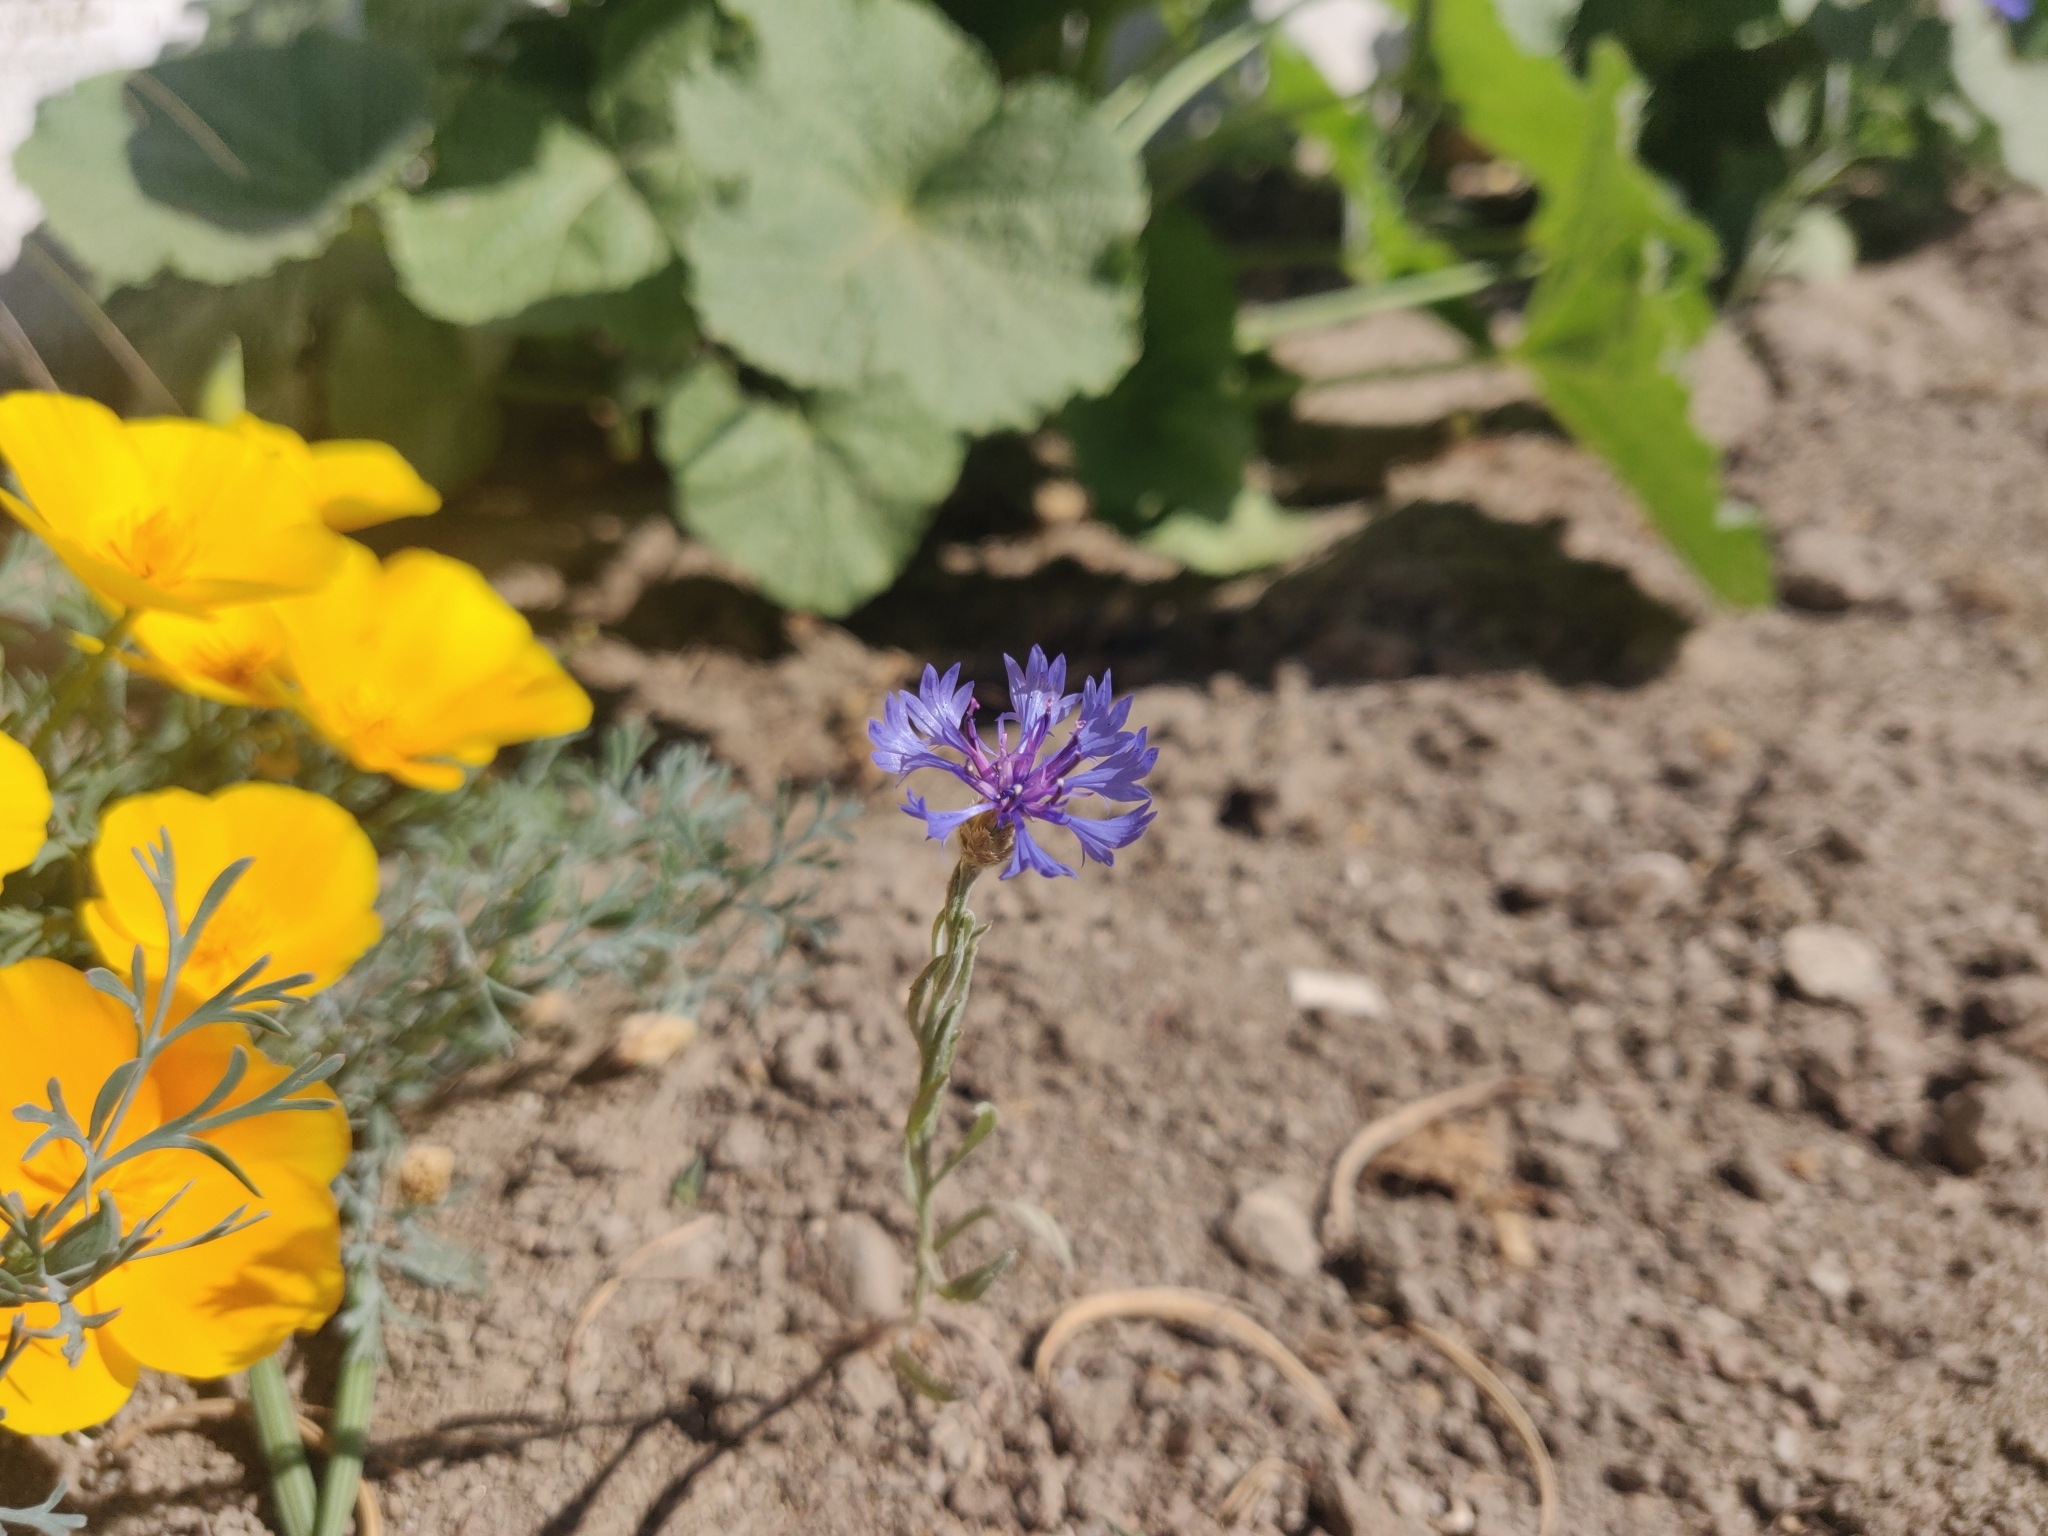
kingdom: Plantae
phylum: Tracheophyta
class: Magnoliopsida
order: Asterales
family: Asteraceae
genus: Centaurea
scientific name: Centaurea cyanus
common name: Cornflower
